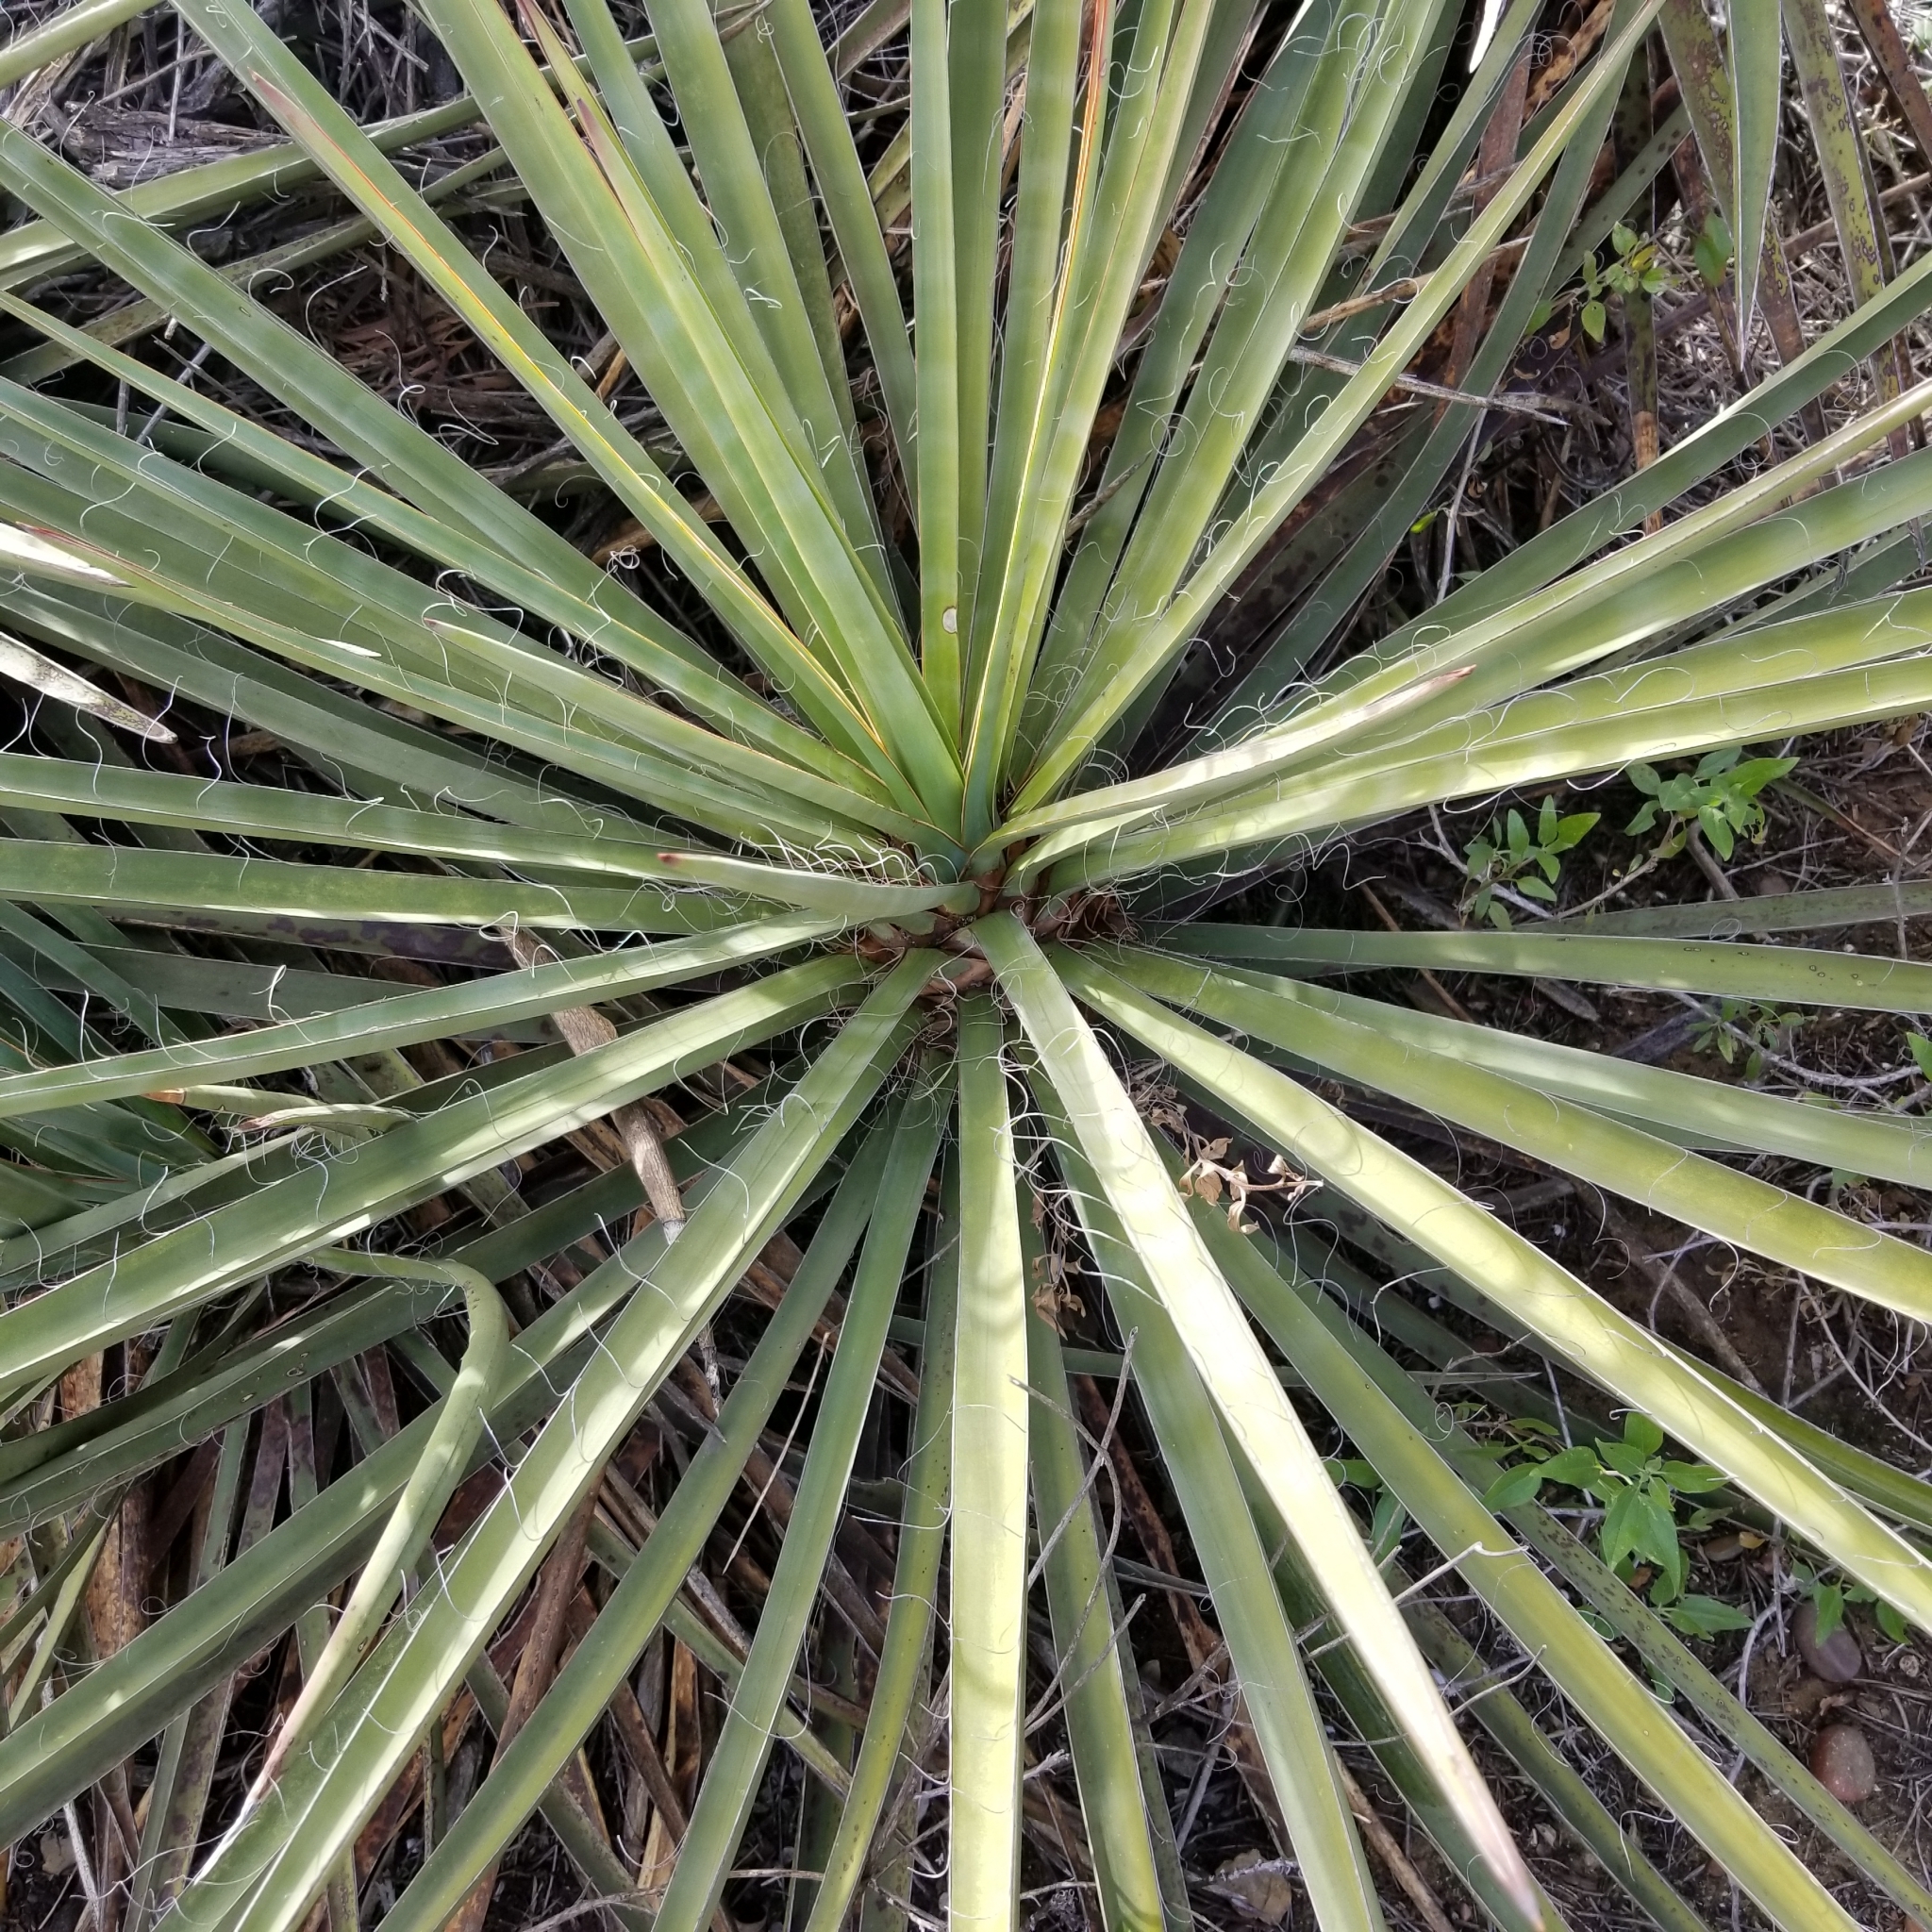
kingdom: Plantae
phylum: Tracheophyta
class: Liliopsida
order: Asparagales
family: Asparagaceae
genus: Yucca
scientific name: Yucca schidigera
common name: Mojave yucca
